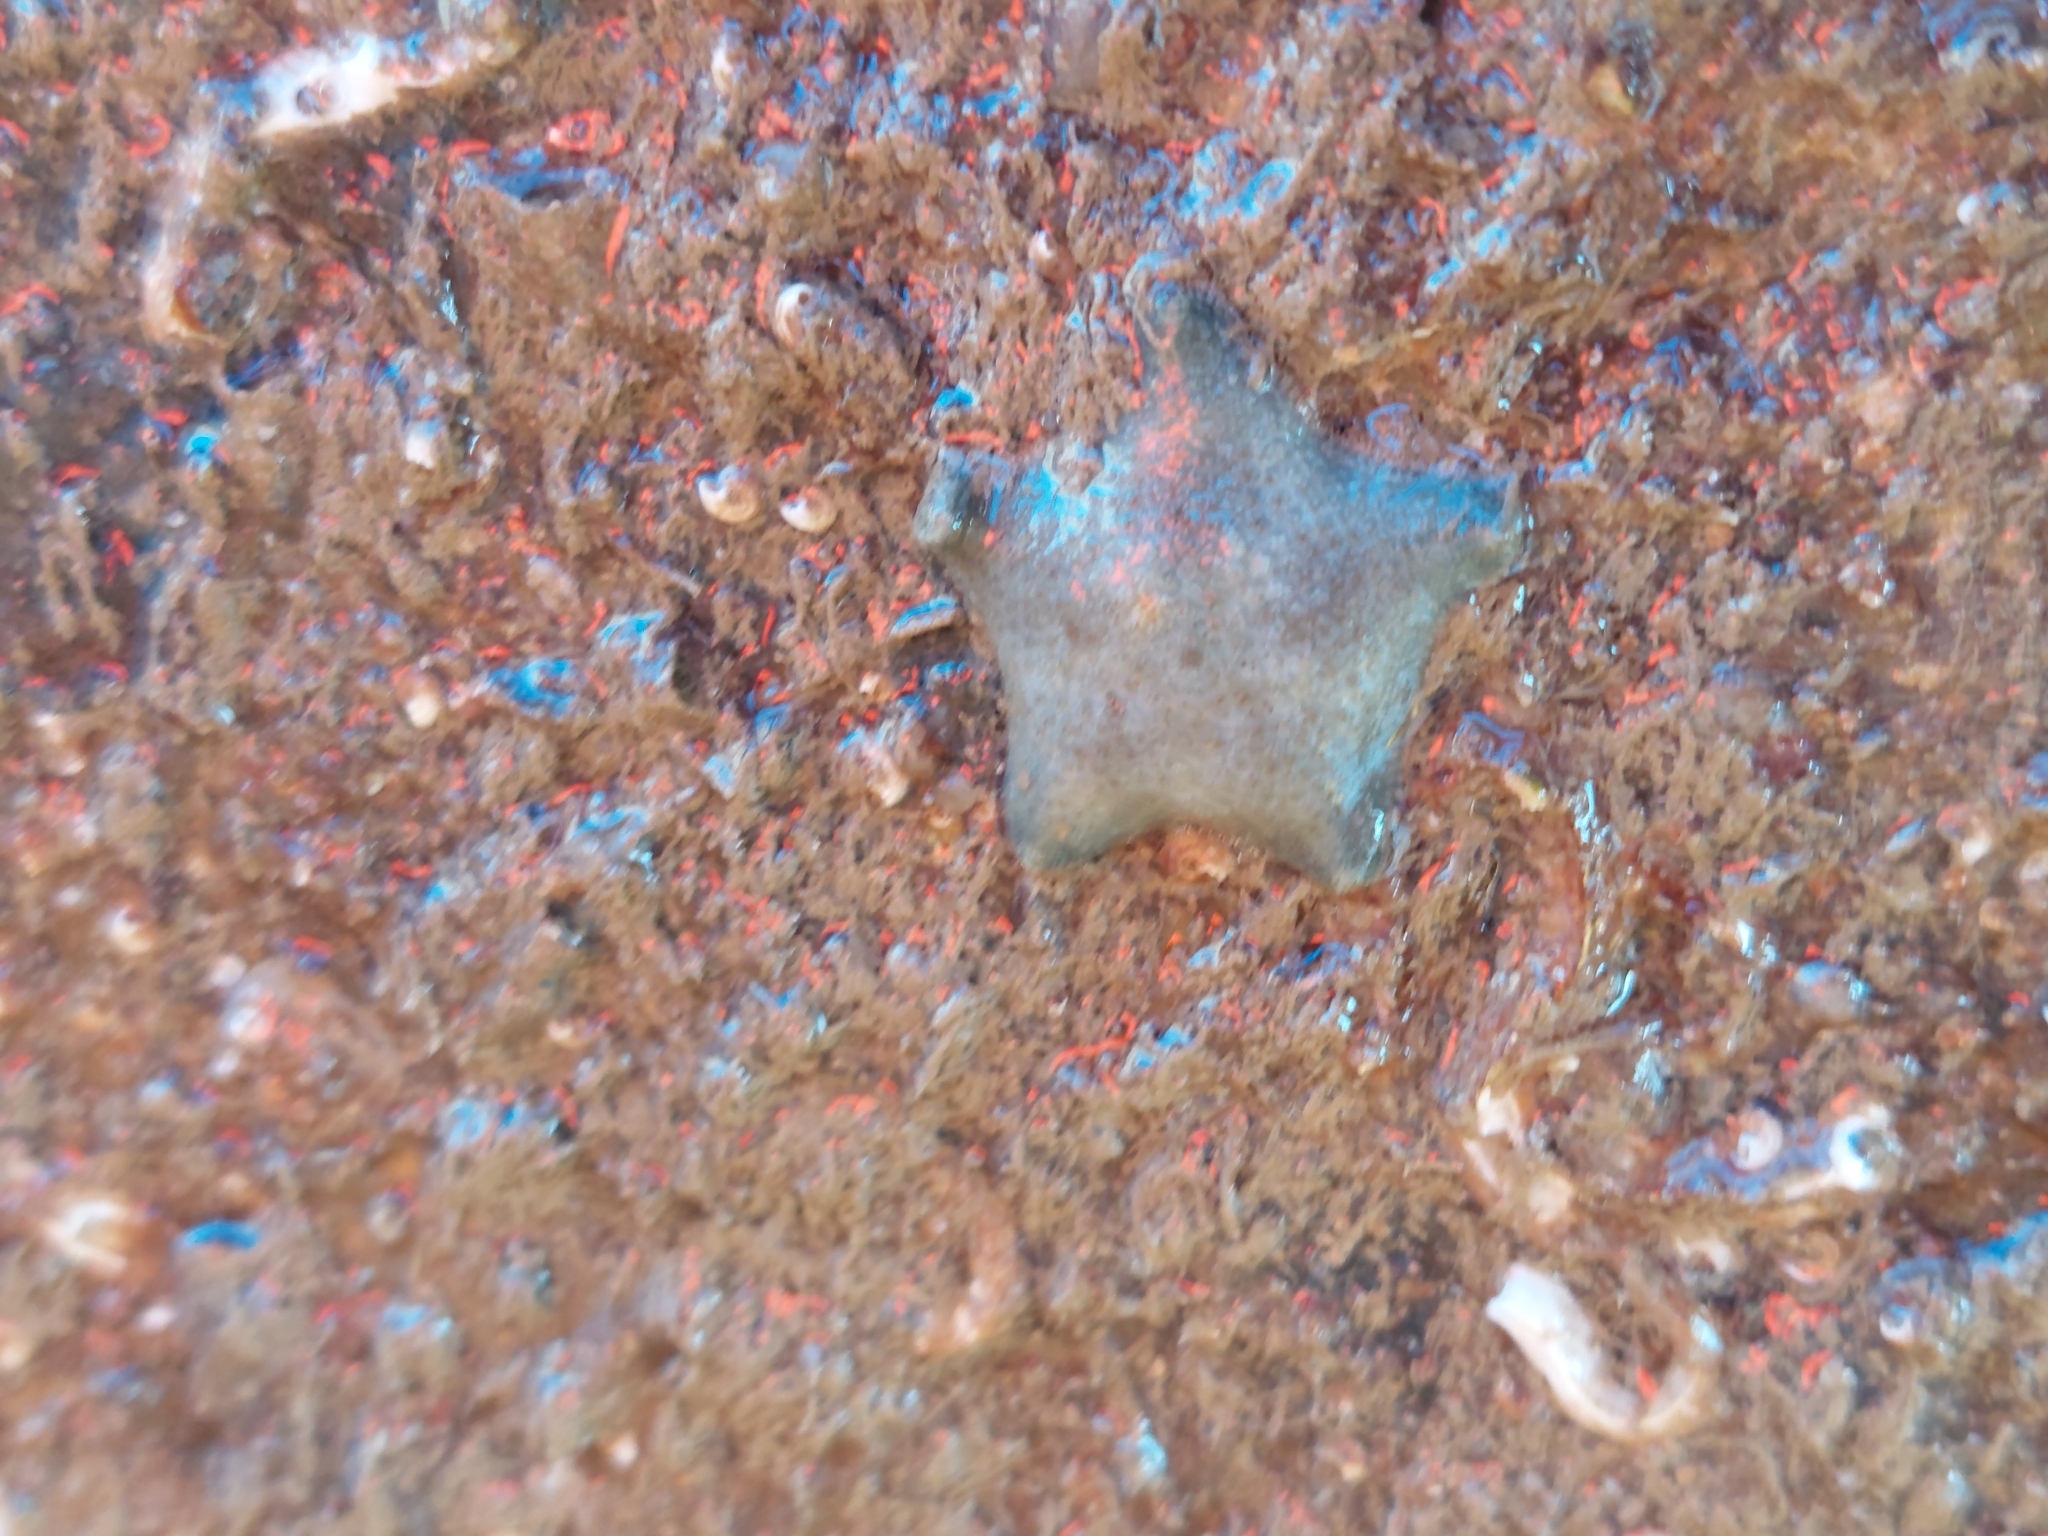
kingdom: Animalia
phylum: Echinodermata
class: Asteroidea
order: Valvatida
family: Asterinidae
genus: Asterina
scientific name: Asterina gibbosa
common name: Cushion star
